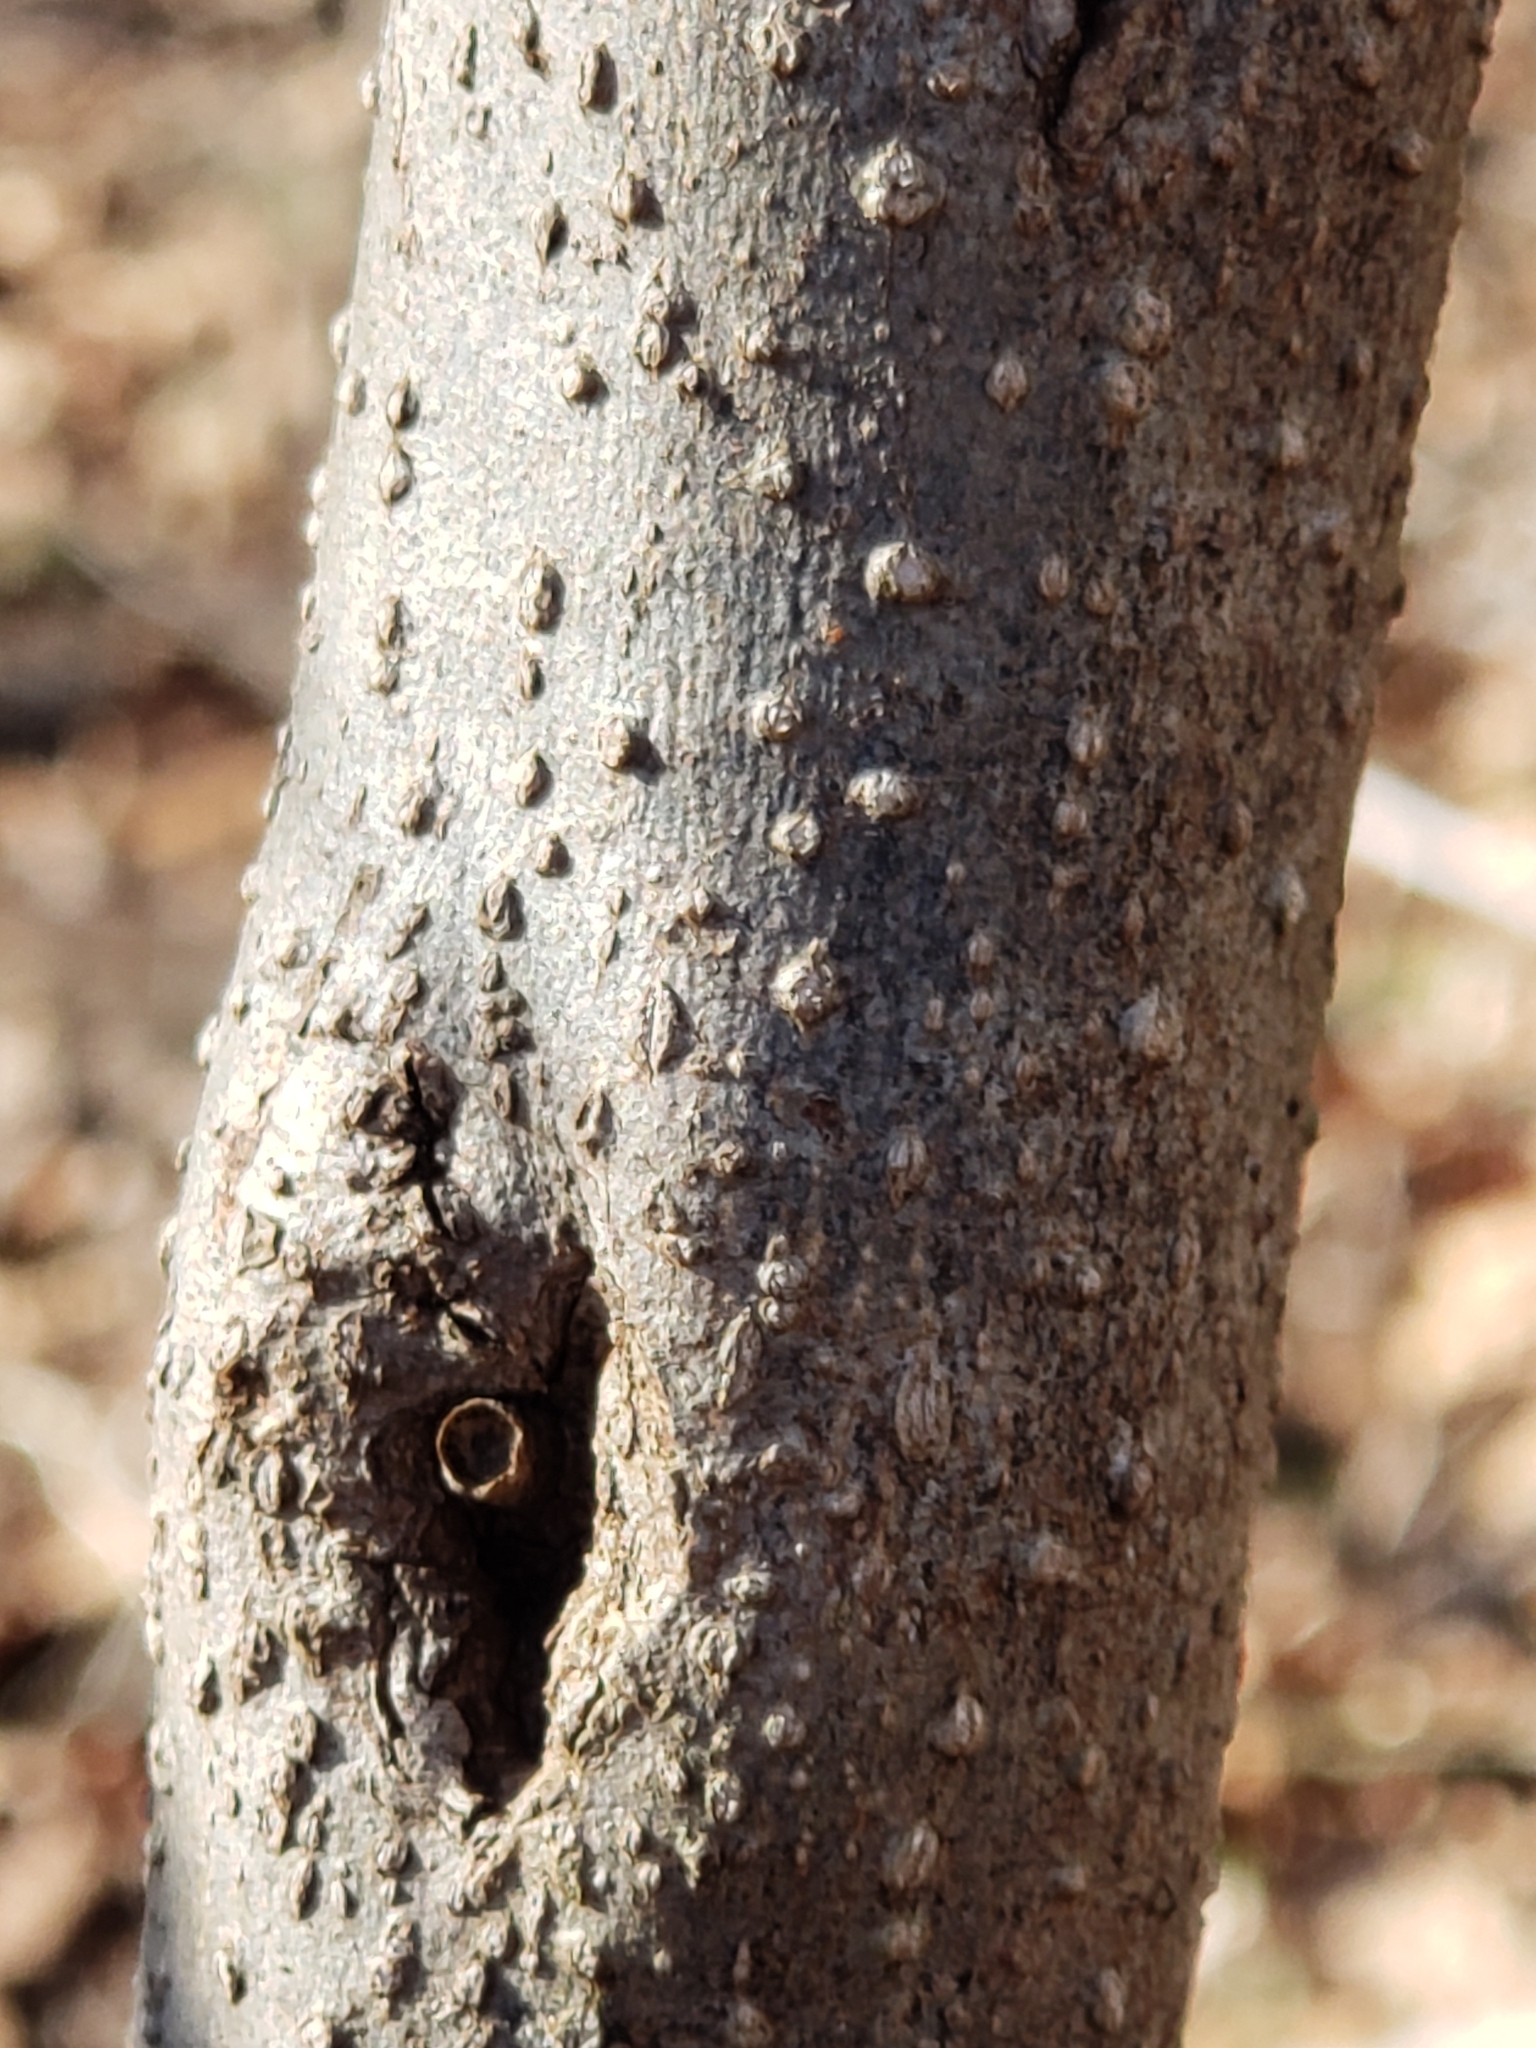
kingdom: Plantae
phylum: Tracheophyta
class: Magnoliopsida
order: Laurales
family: Lauraceae
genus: Lindera
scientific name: Lindera benzoin
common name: Spicebush
